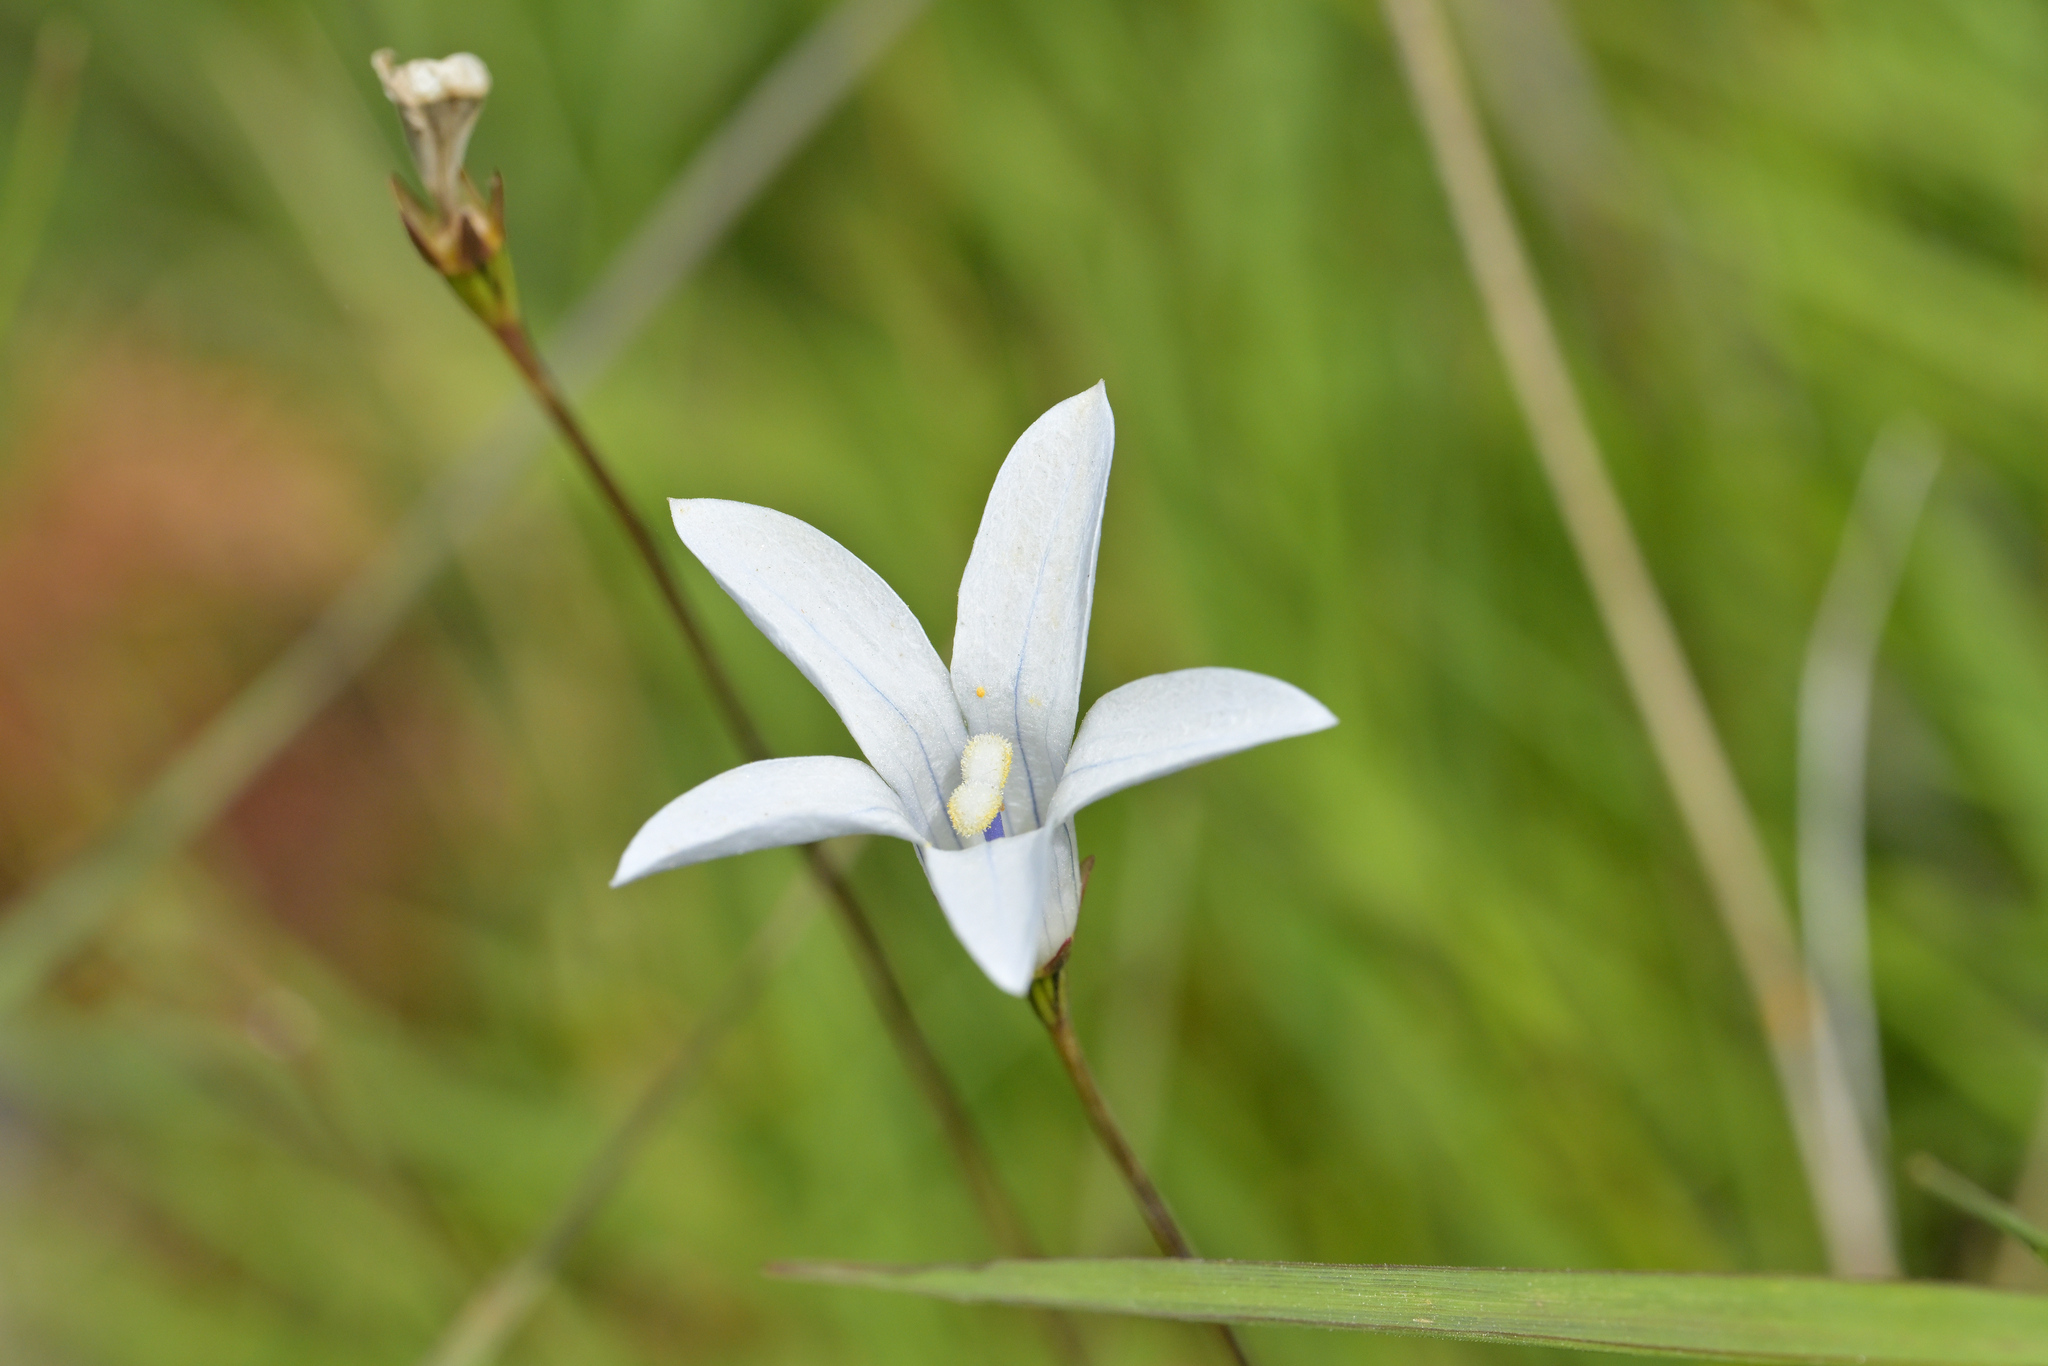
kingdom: Plantae
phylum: Tracheophyta
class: Magnoliopsida
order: Asterales
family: Campanulaceae
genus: Wahlenbergia
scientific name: Wahlenbergia albomarginata
